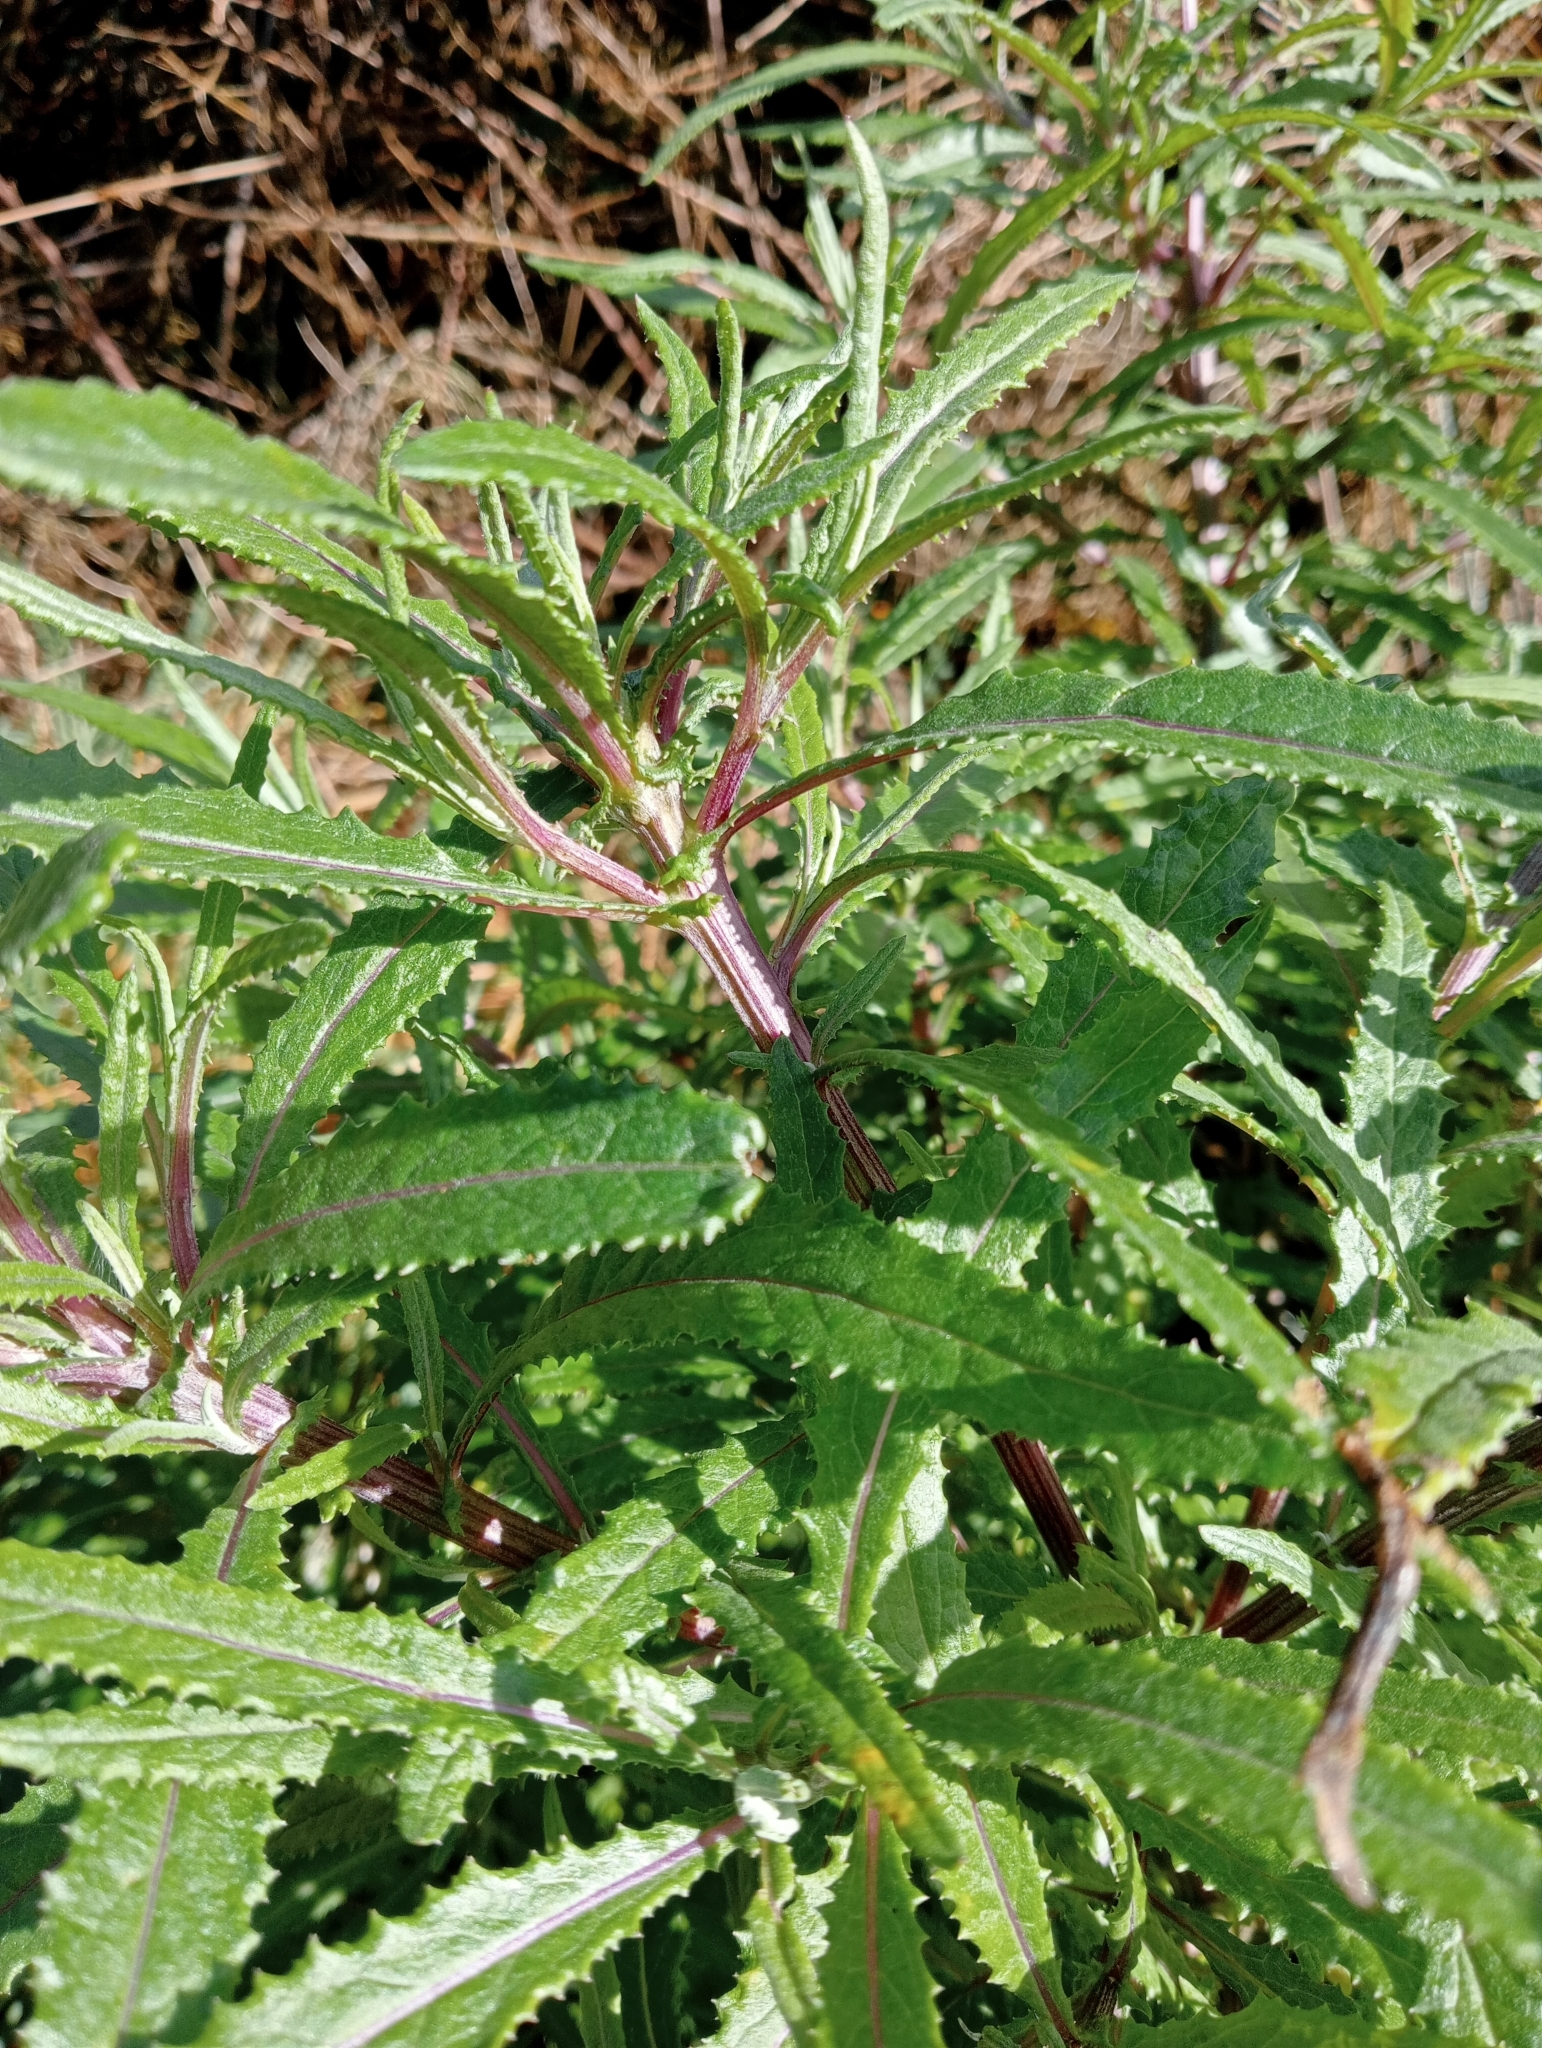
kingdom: Plantae
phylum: Tracheophyta
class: Magnoliopsida
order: Asterales
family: Asteraceae
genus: Senecio
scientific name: Senecio minimus
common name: Toothed fireweed
